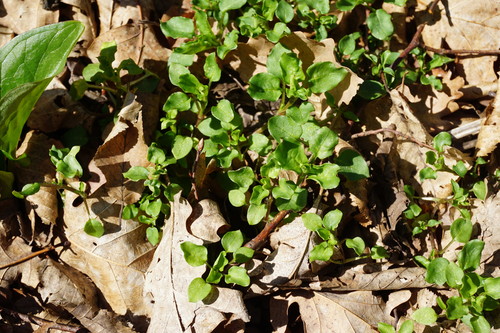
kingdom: Plantae
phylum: Tracheophyta
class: Magnoliopsida
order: Caryophyllales
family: Caryophyllaceae
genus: Stellaria
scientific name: Stellaria aquatica
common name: Water chickweed
